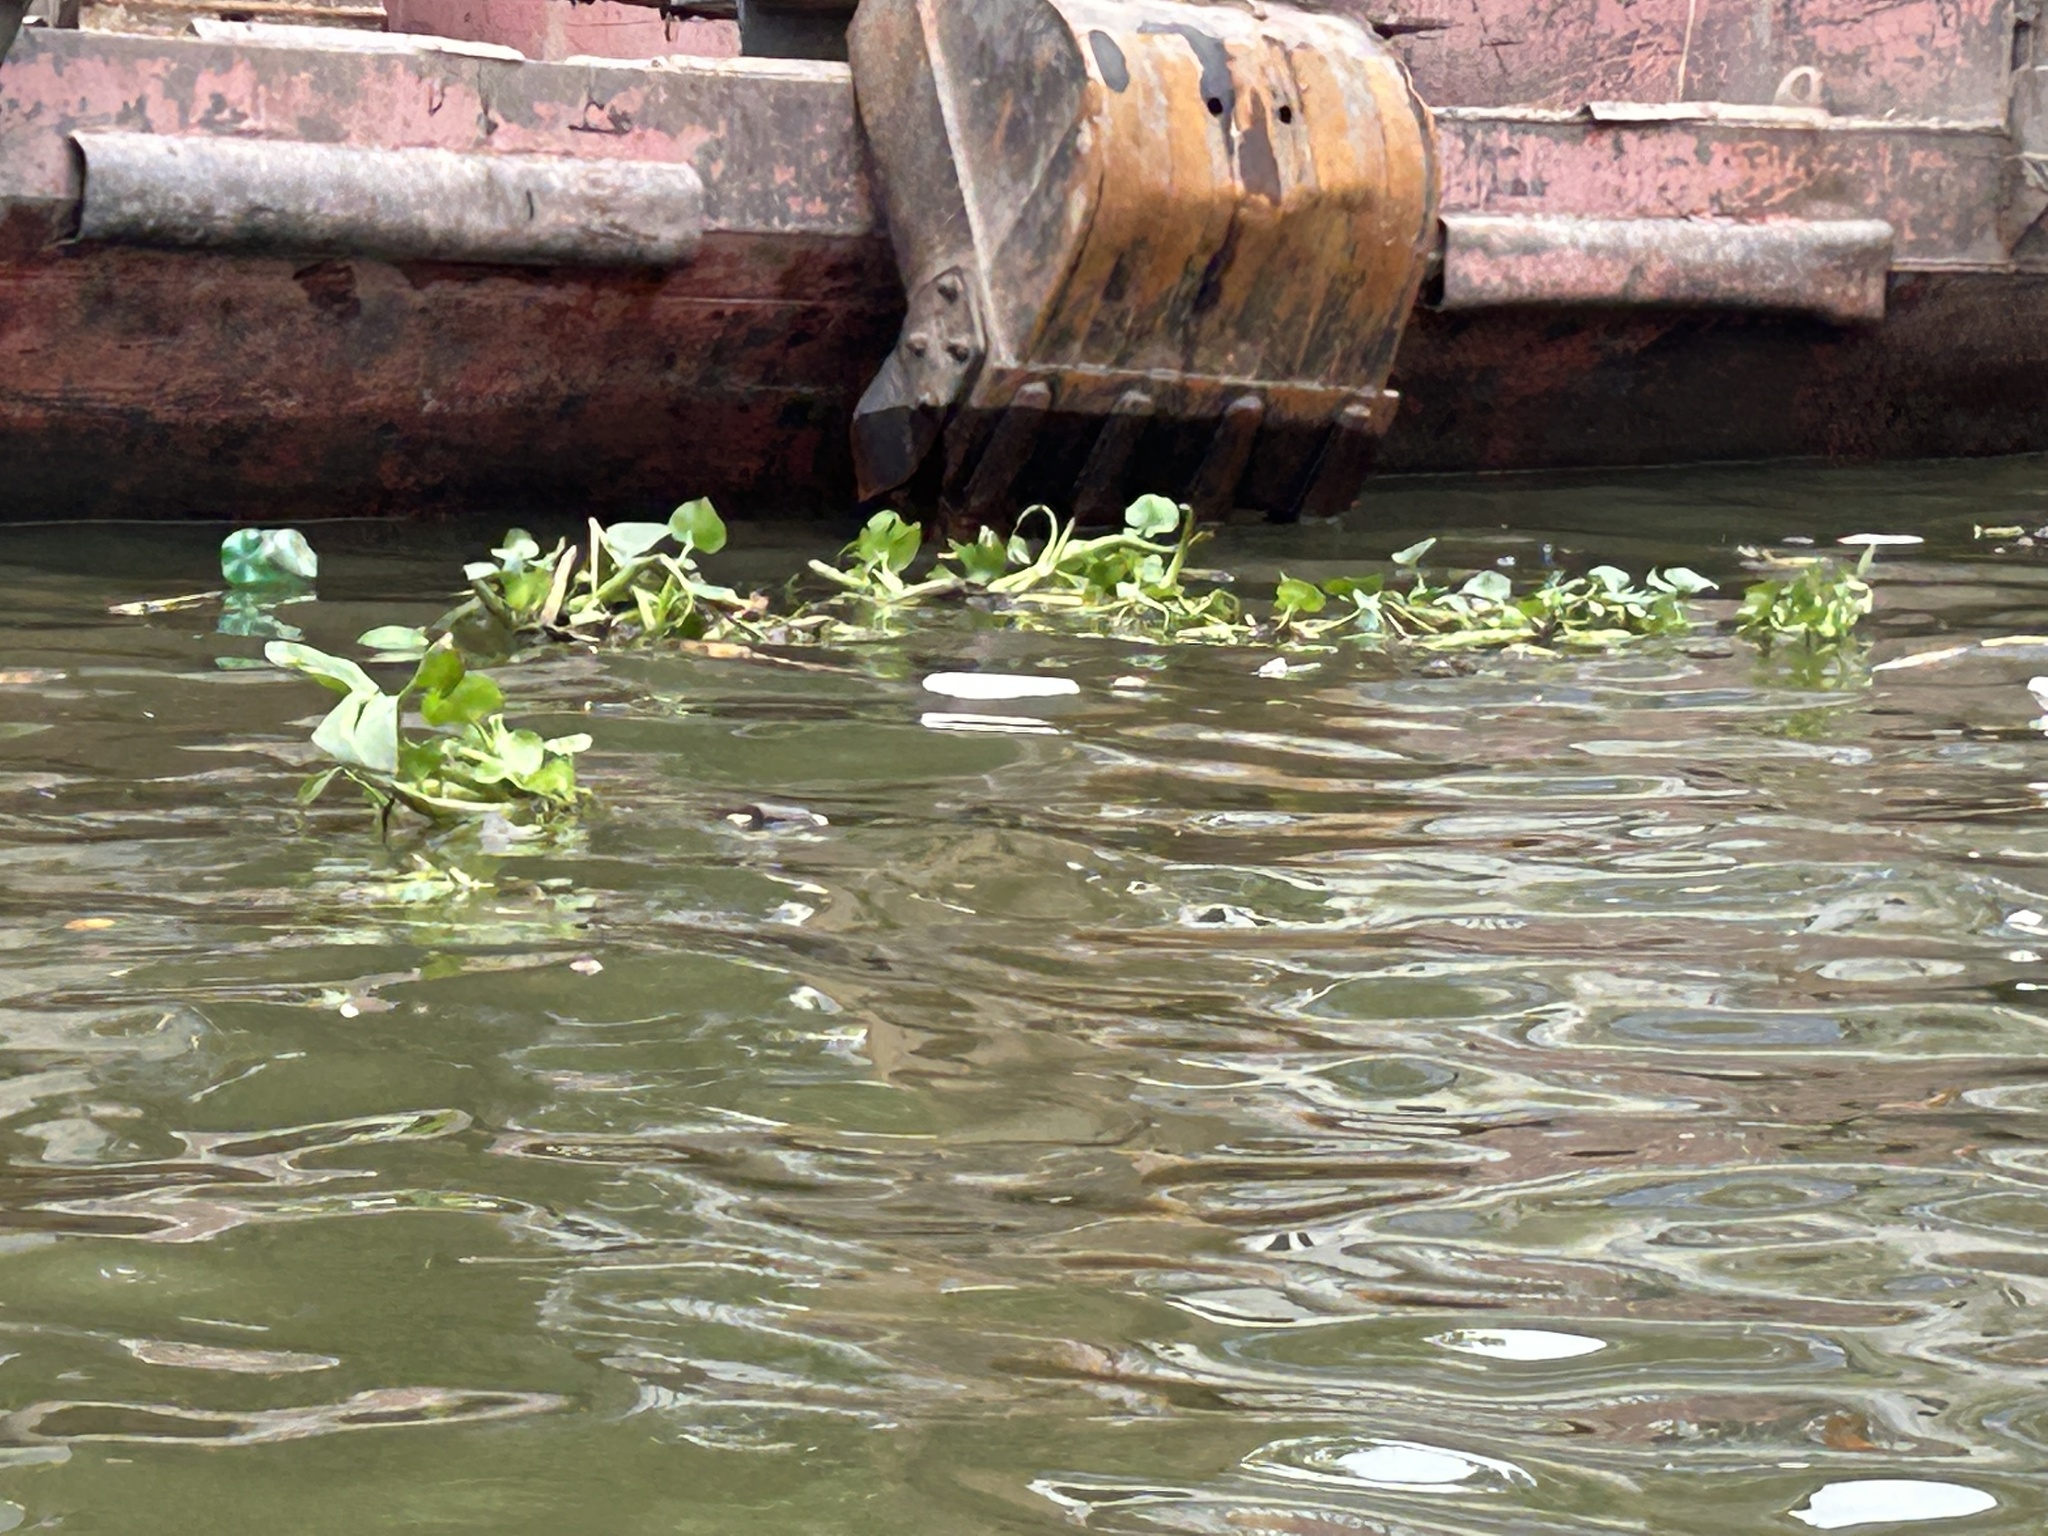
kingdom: Plantae
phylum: Tracheophyta
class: Liliopsida
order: Commelinales
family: Pontederiaceae
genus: Pontederia
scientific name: Pontederia crassipes
